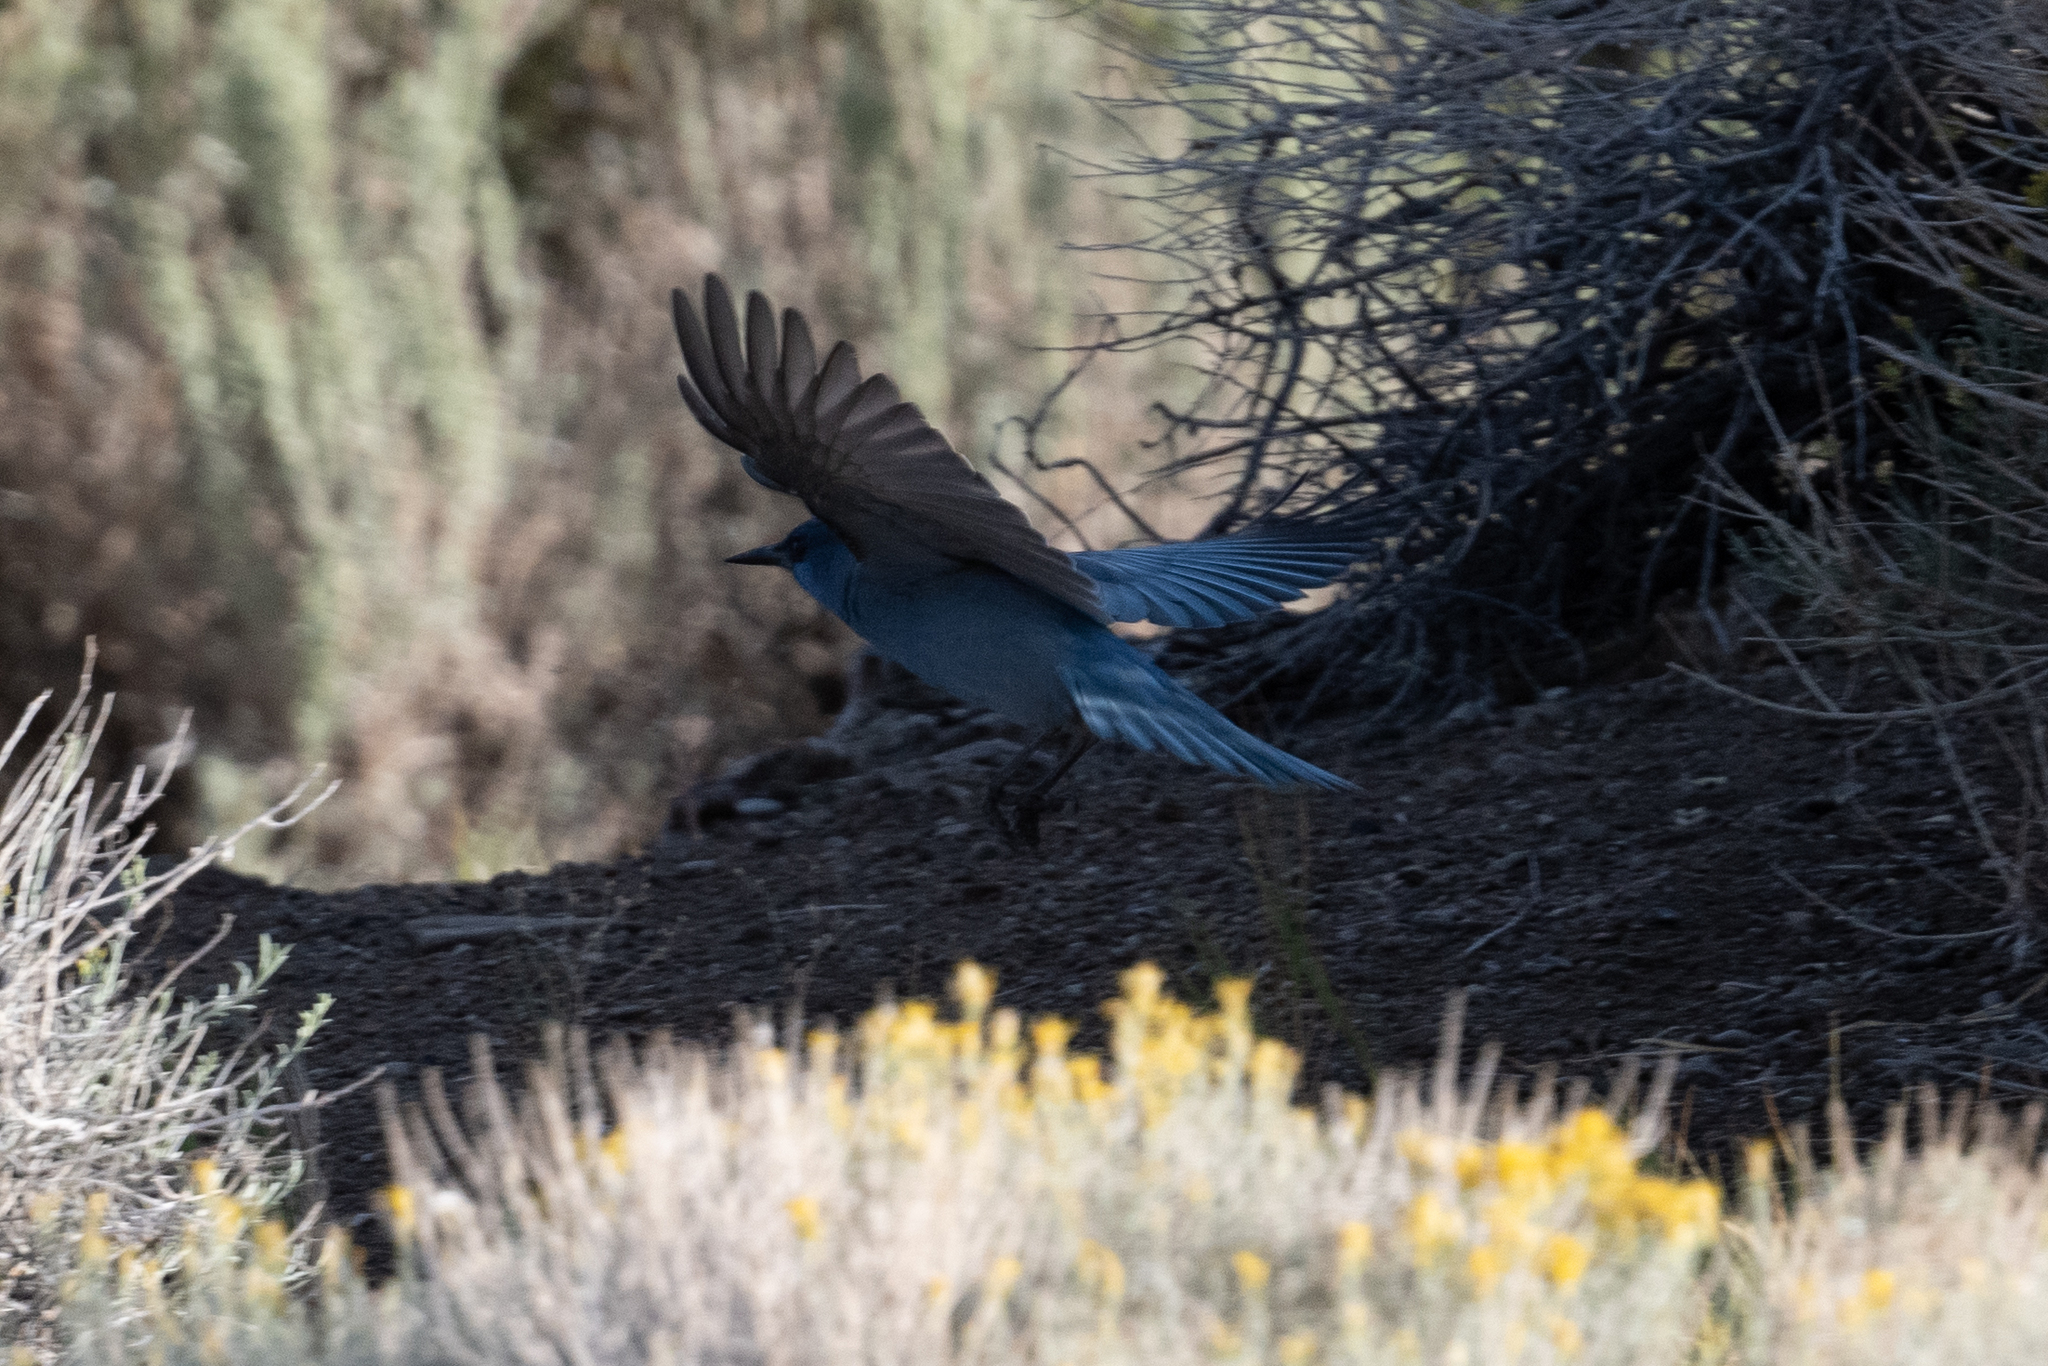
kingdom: Animalia
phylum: Chordata
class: Aves
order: Passeriformes
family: Corvidae
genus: Gymnorhinus
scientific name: Gymnorhinus cyanocephalus
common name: Pinyon jay
